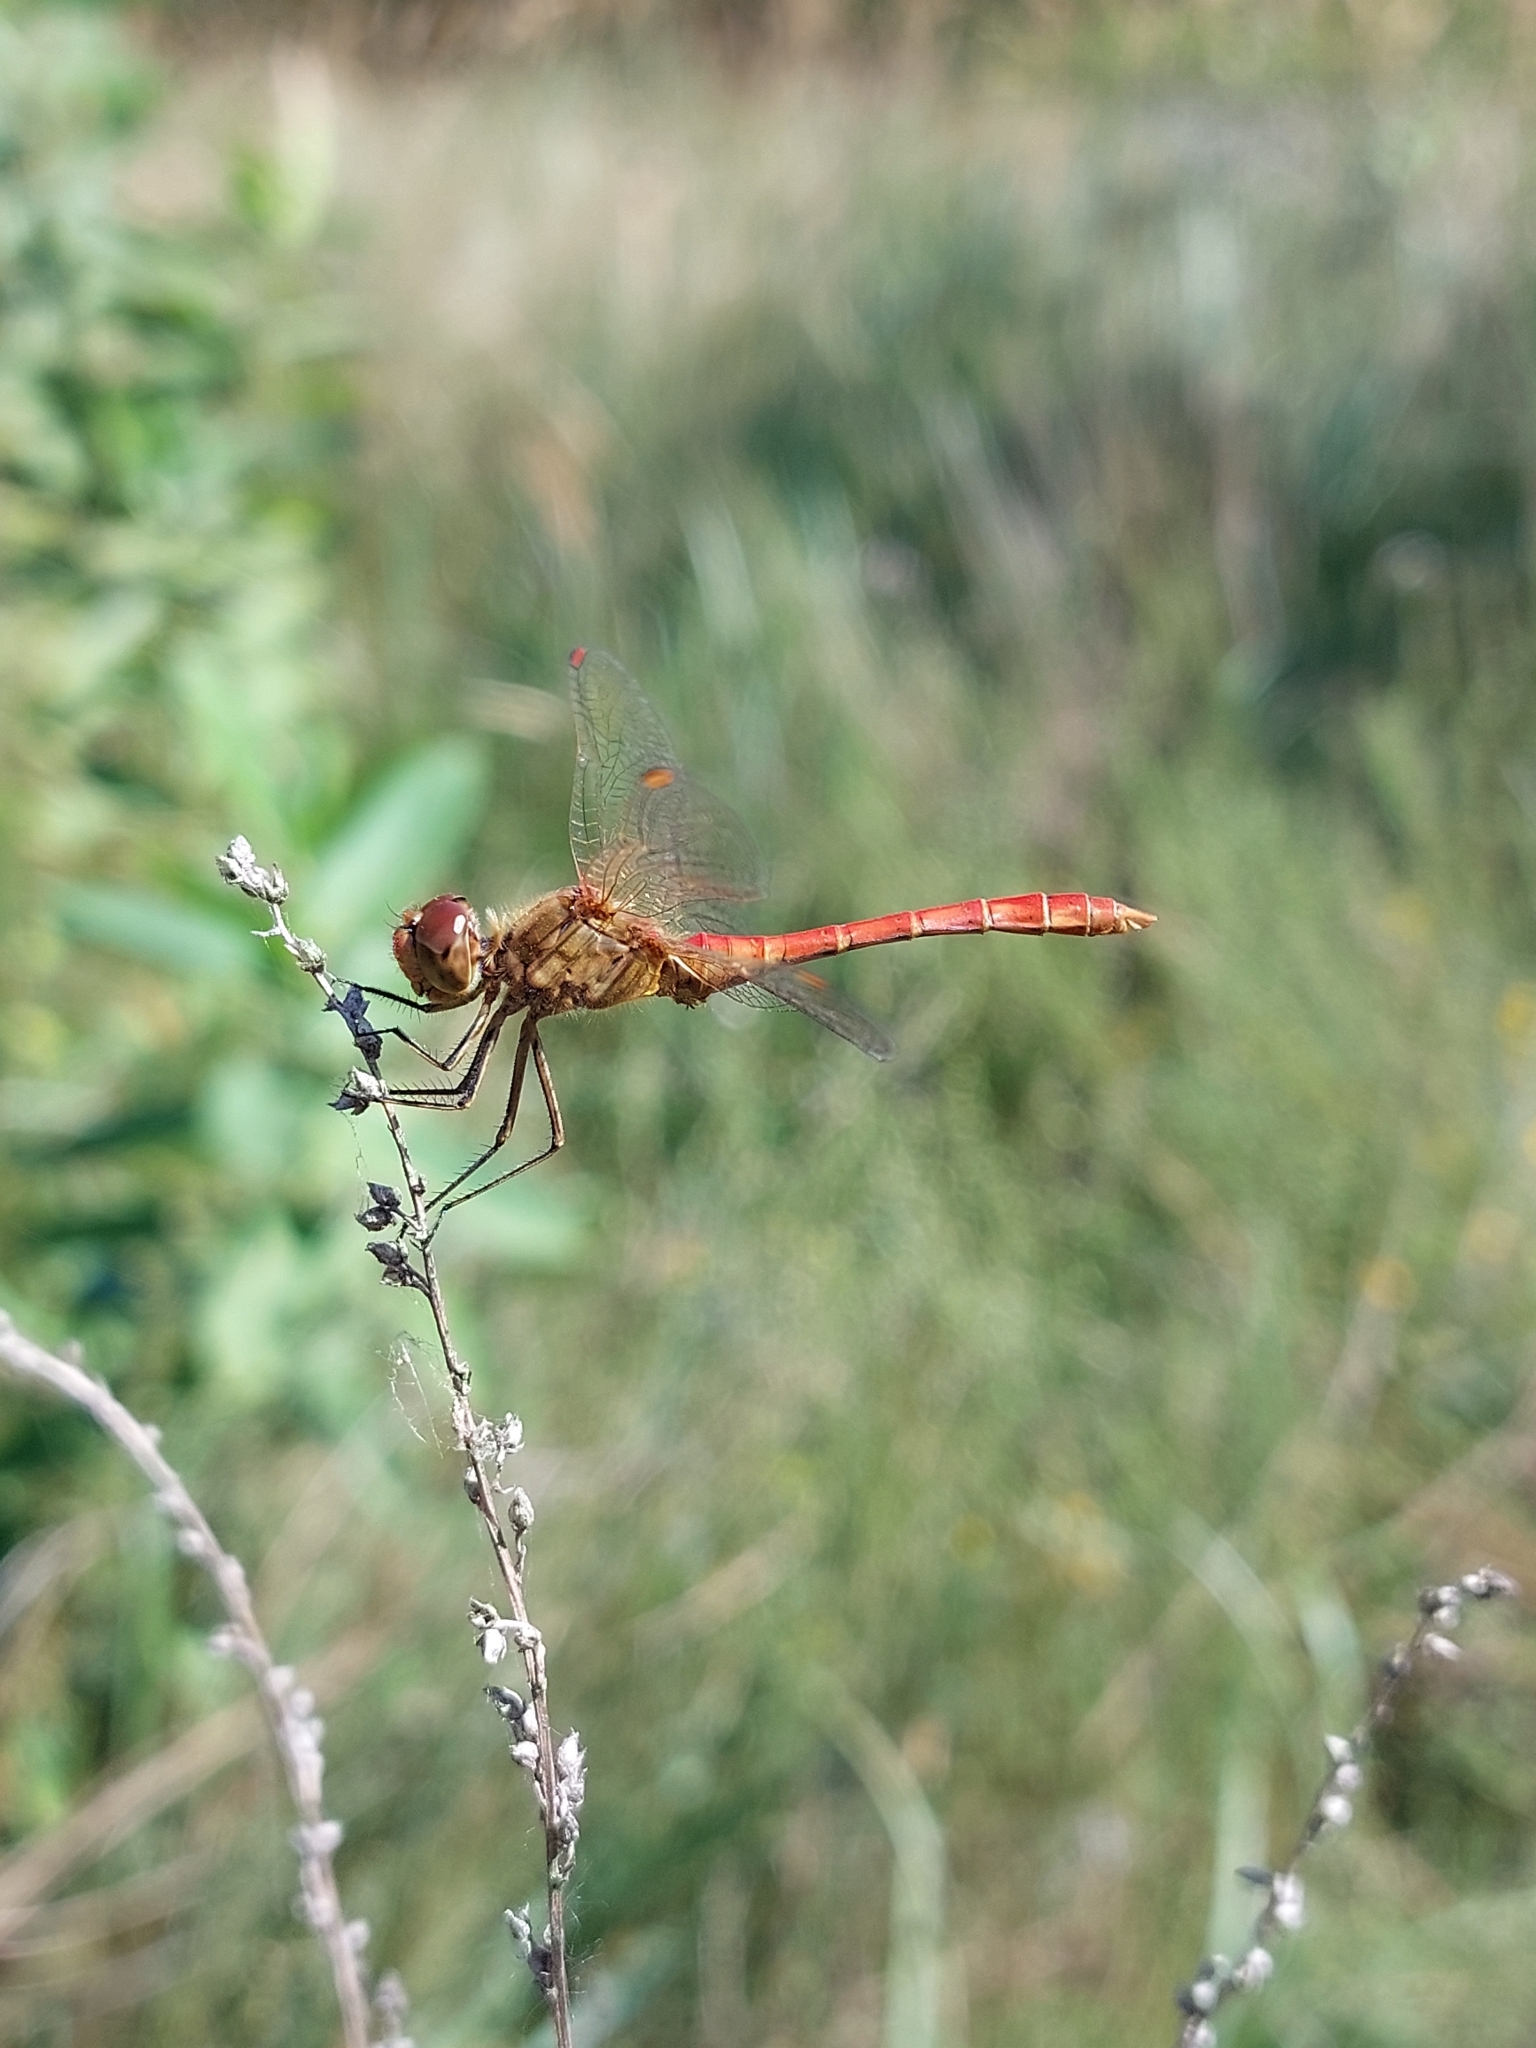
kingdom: Animalia
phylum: Arthropoda
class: Insecta
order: Odonata
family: Libellulidae
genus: Sympetrum
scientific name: Sympetrum meridionale
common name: Southern darter
